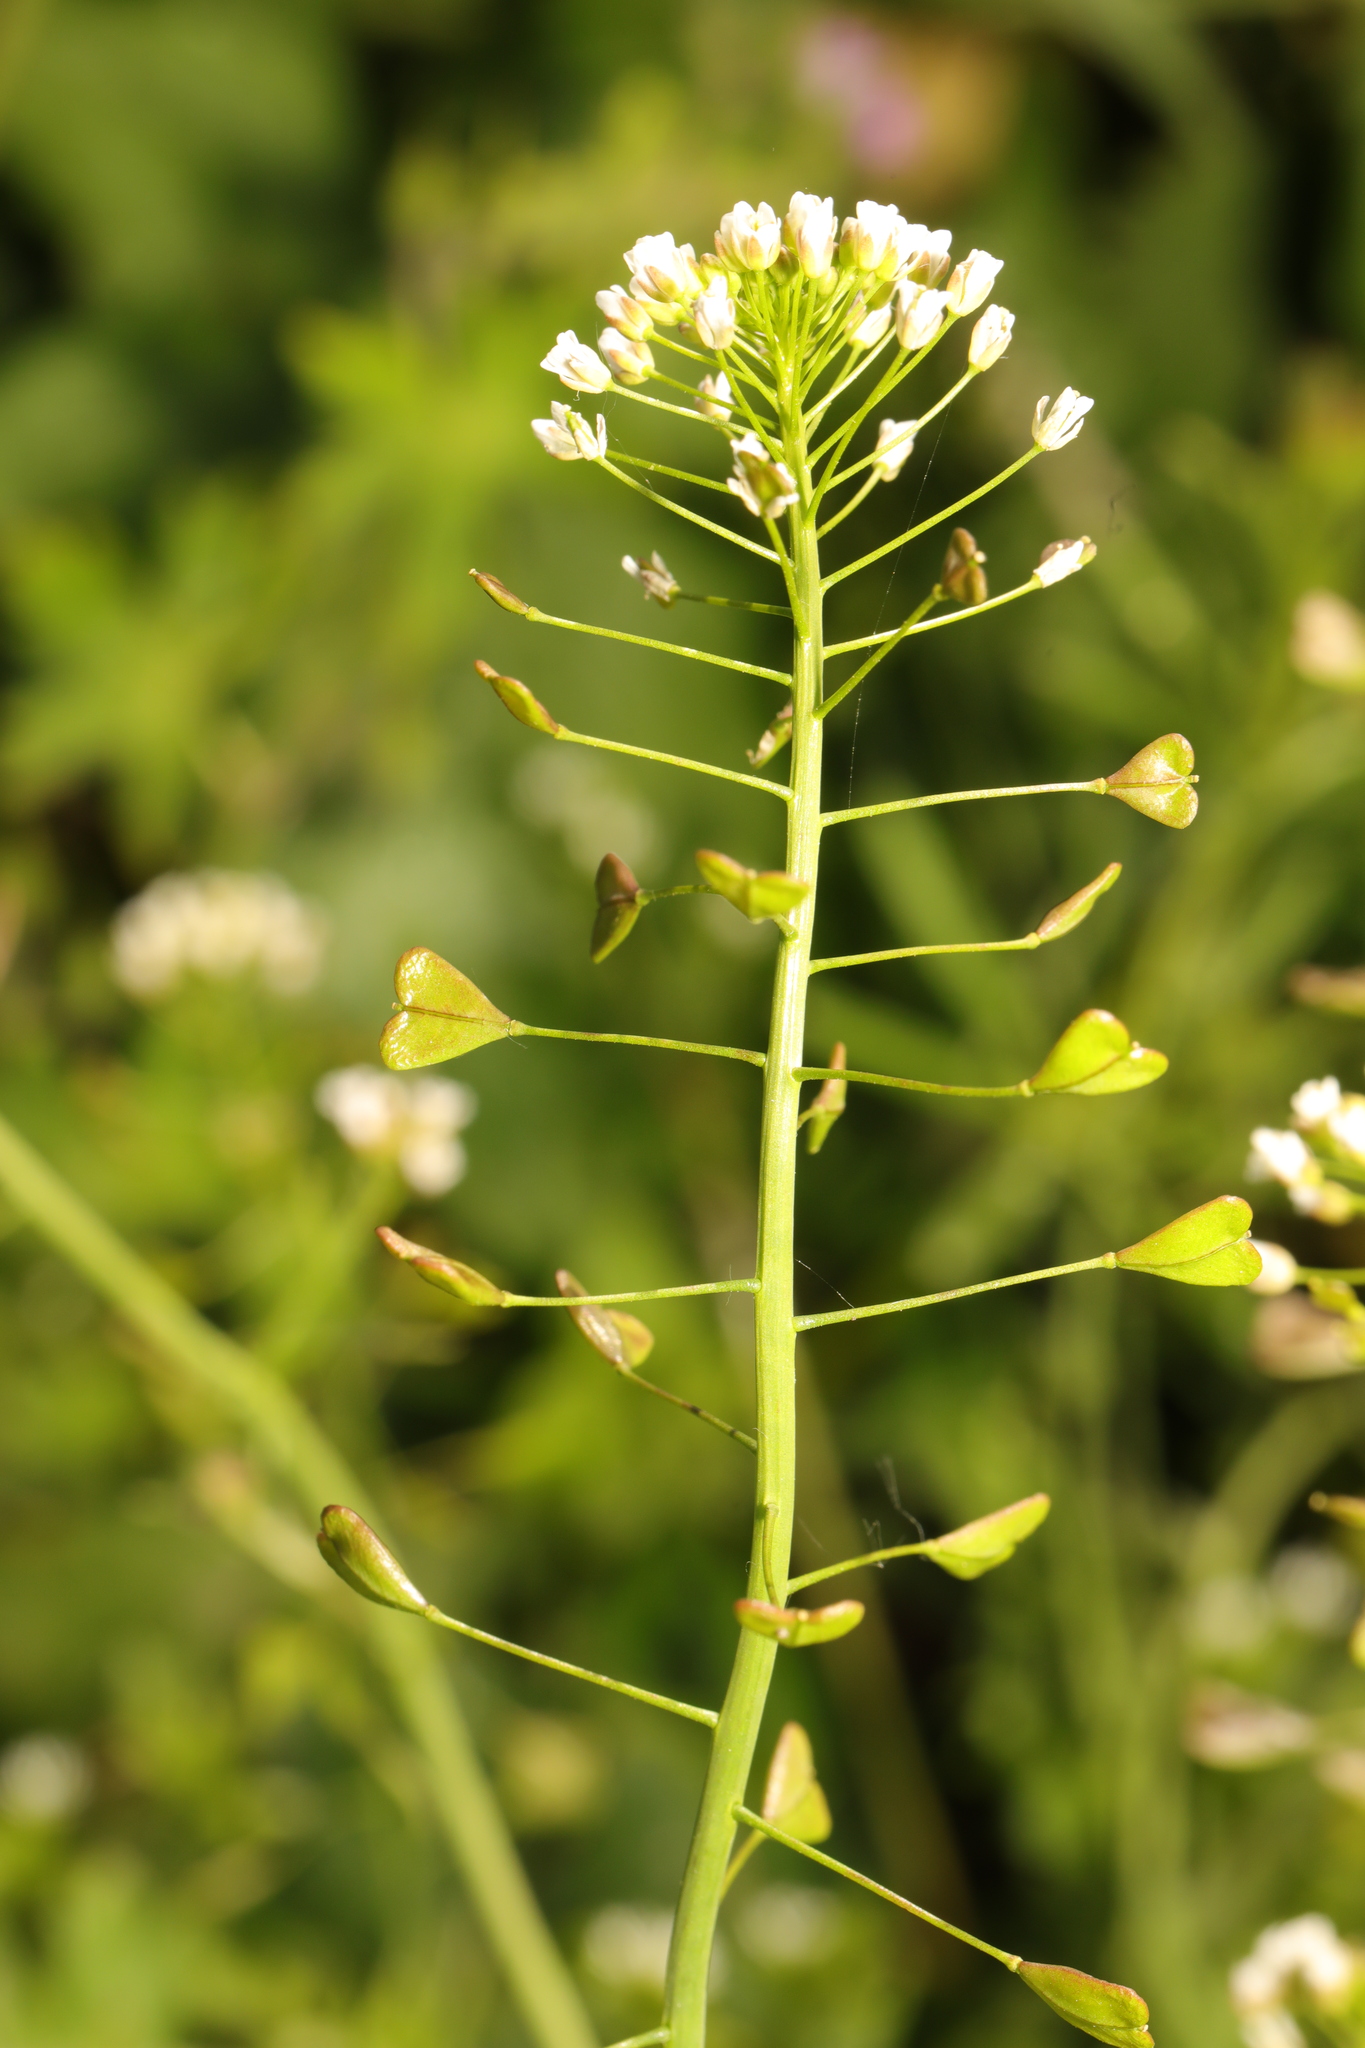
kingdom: Plantae
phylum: Tracheophyta
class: Magnoliopsida
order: Brassicales
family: Brassicaceae
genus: Capsella
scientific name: Capsella bursa-pastoris
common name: Shepherd's purse
